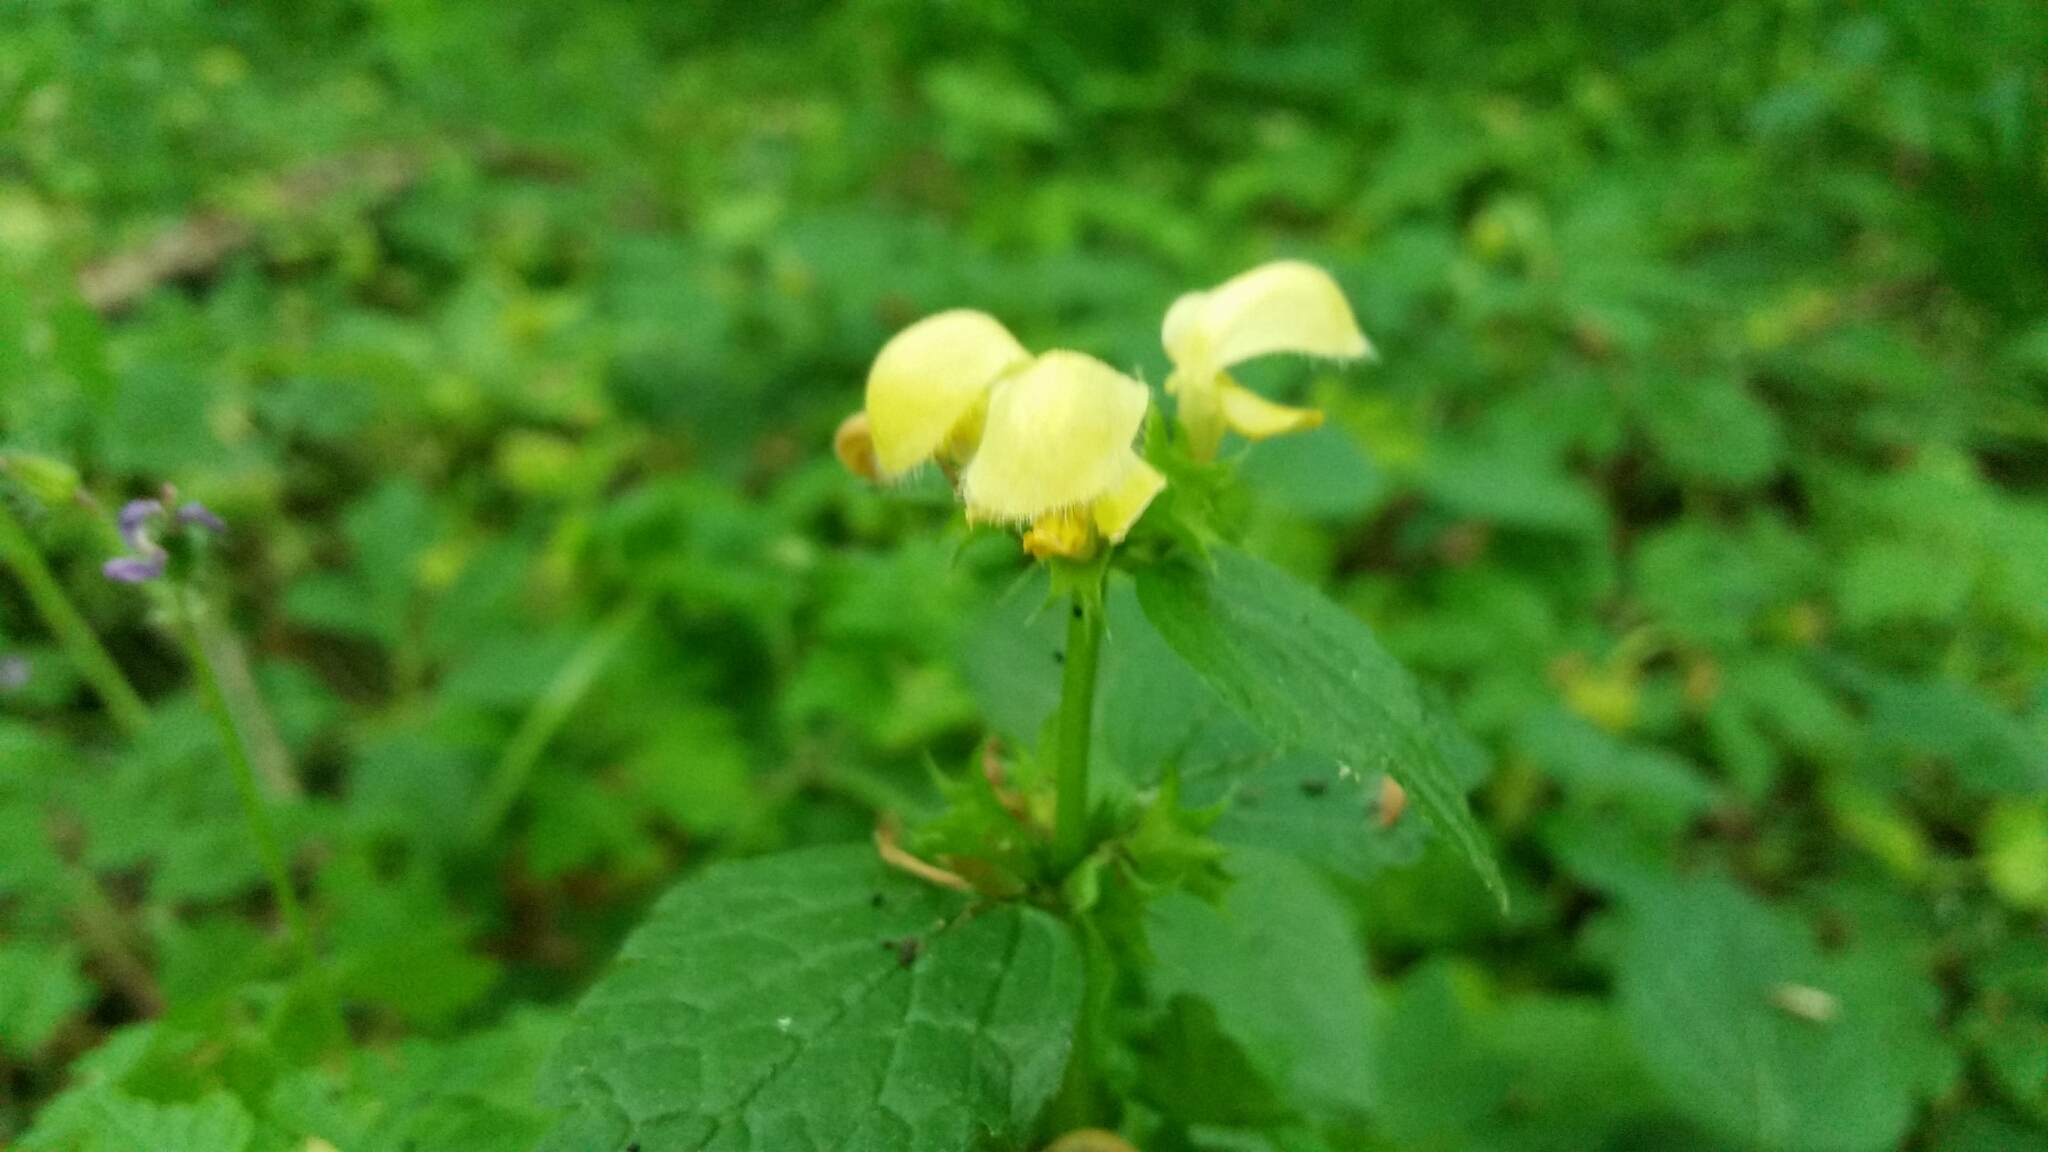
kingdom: Plantae
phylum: Tracheophyta
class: Magnoliopsida
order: Lamiales
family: Lamiaceae
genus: Lamium
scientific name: Lamium galeobdolon
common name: Yellow archangel
